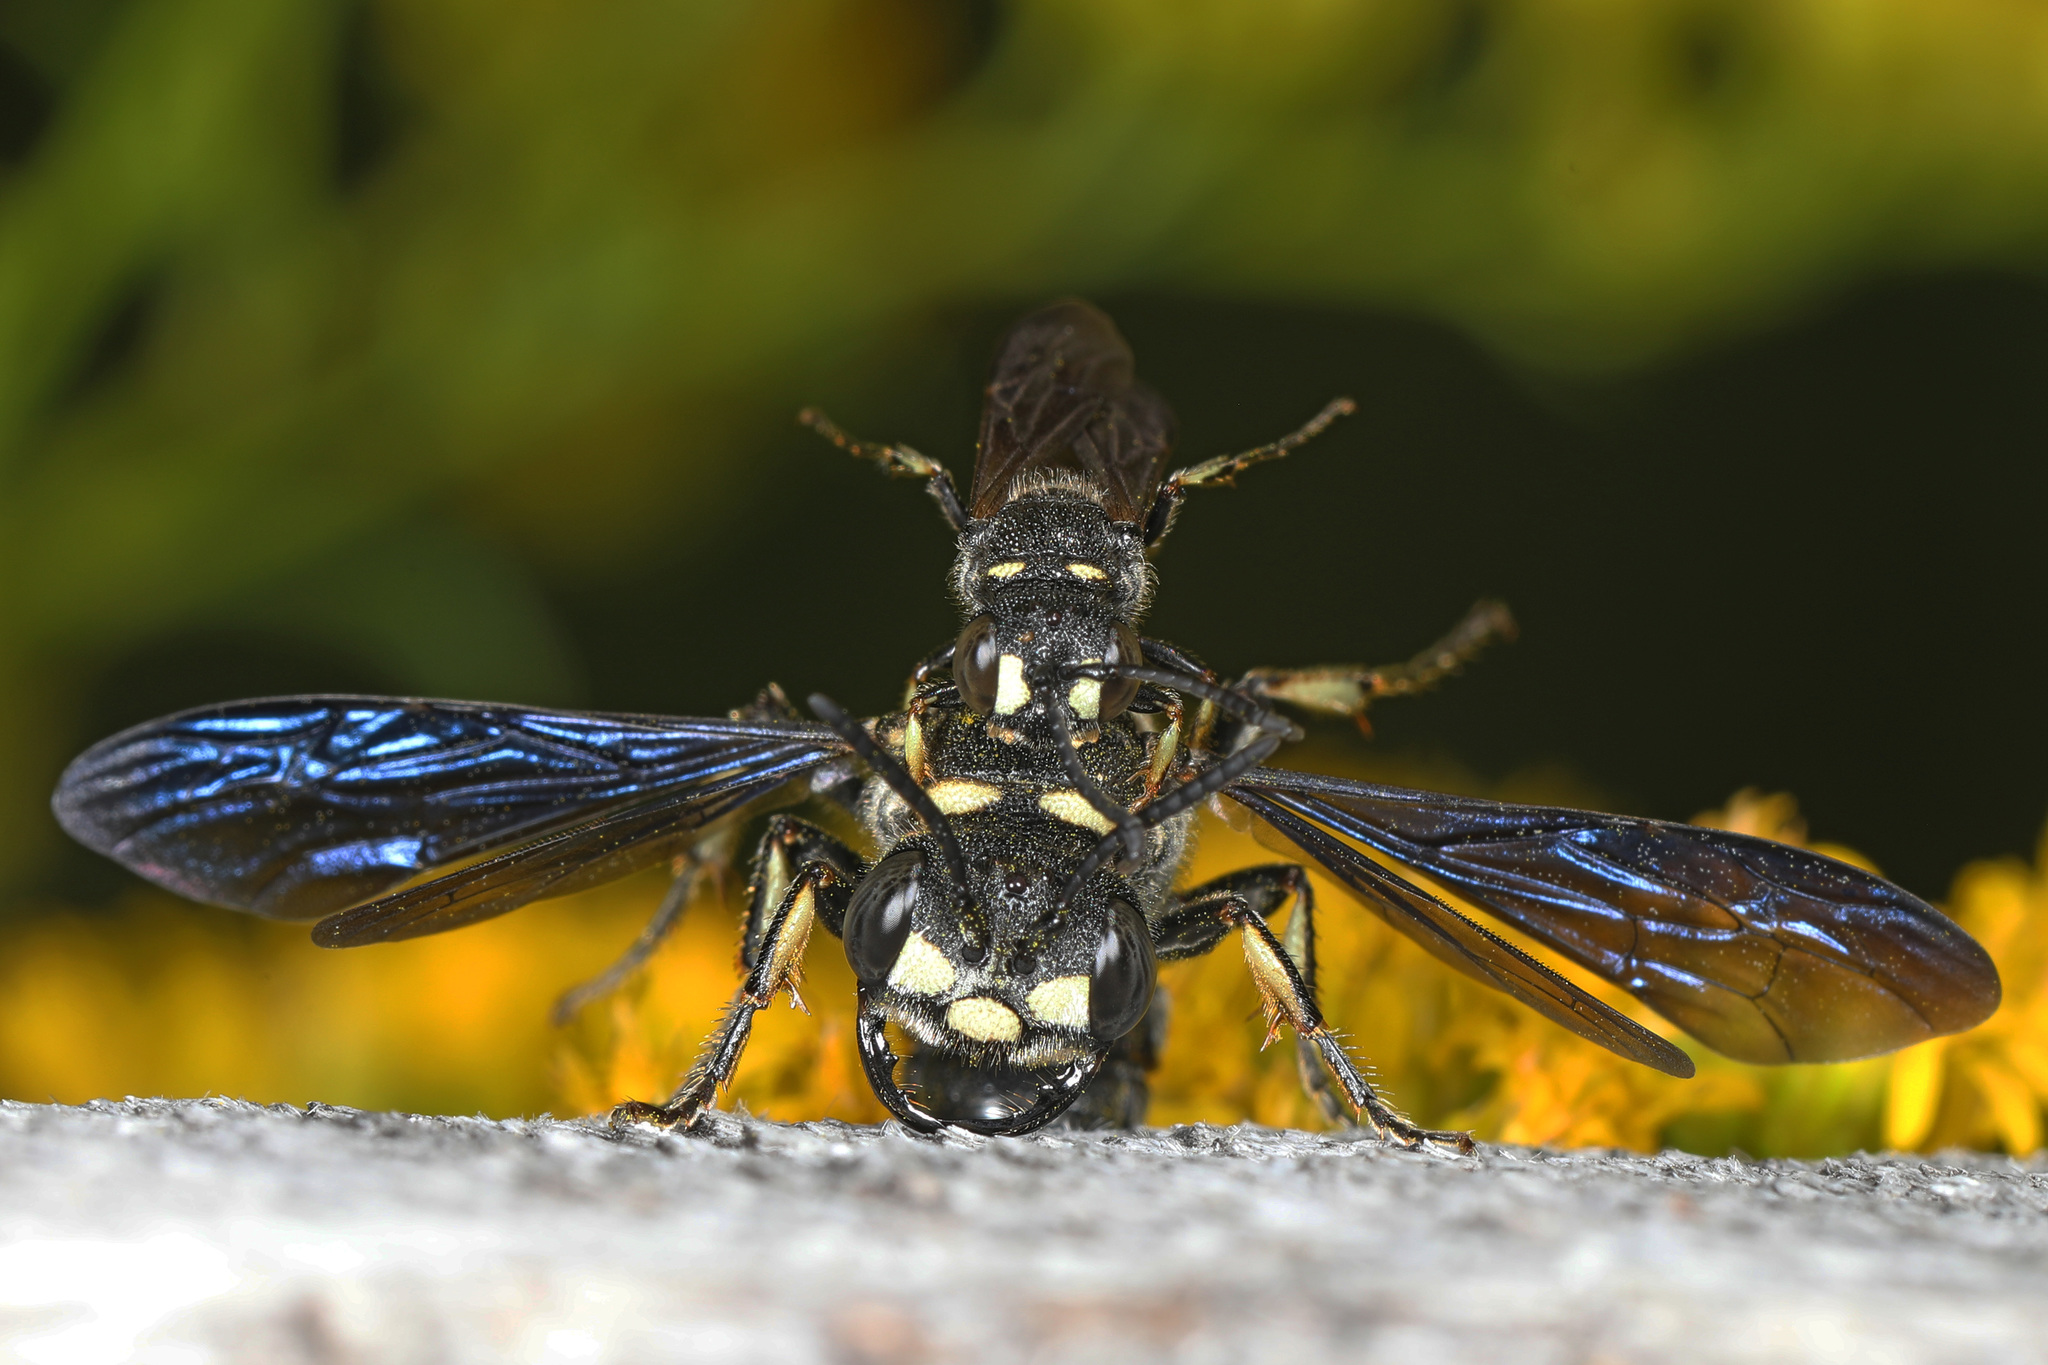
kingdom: Animalia
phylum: Arthropoda
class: Insecta
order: Hymenoptera
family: Crabronidae
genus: Cerceris
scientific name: Cerceris fumipennis
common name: Smokey-winged beetle bandit wasp
